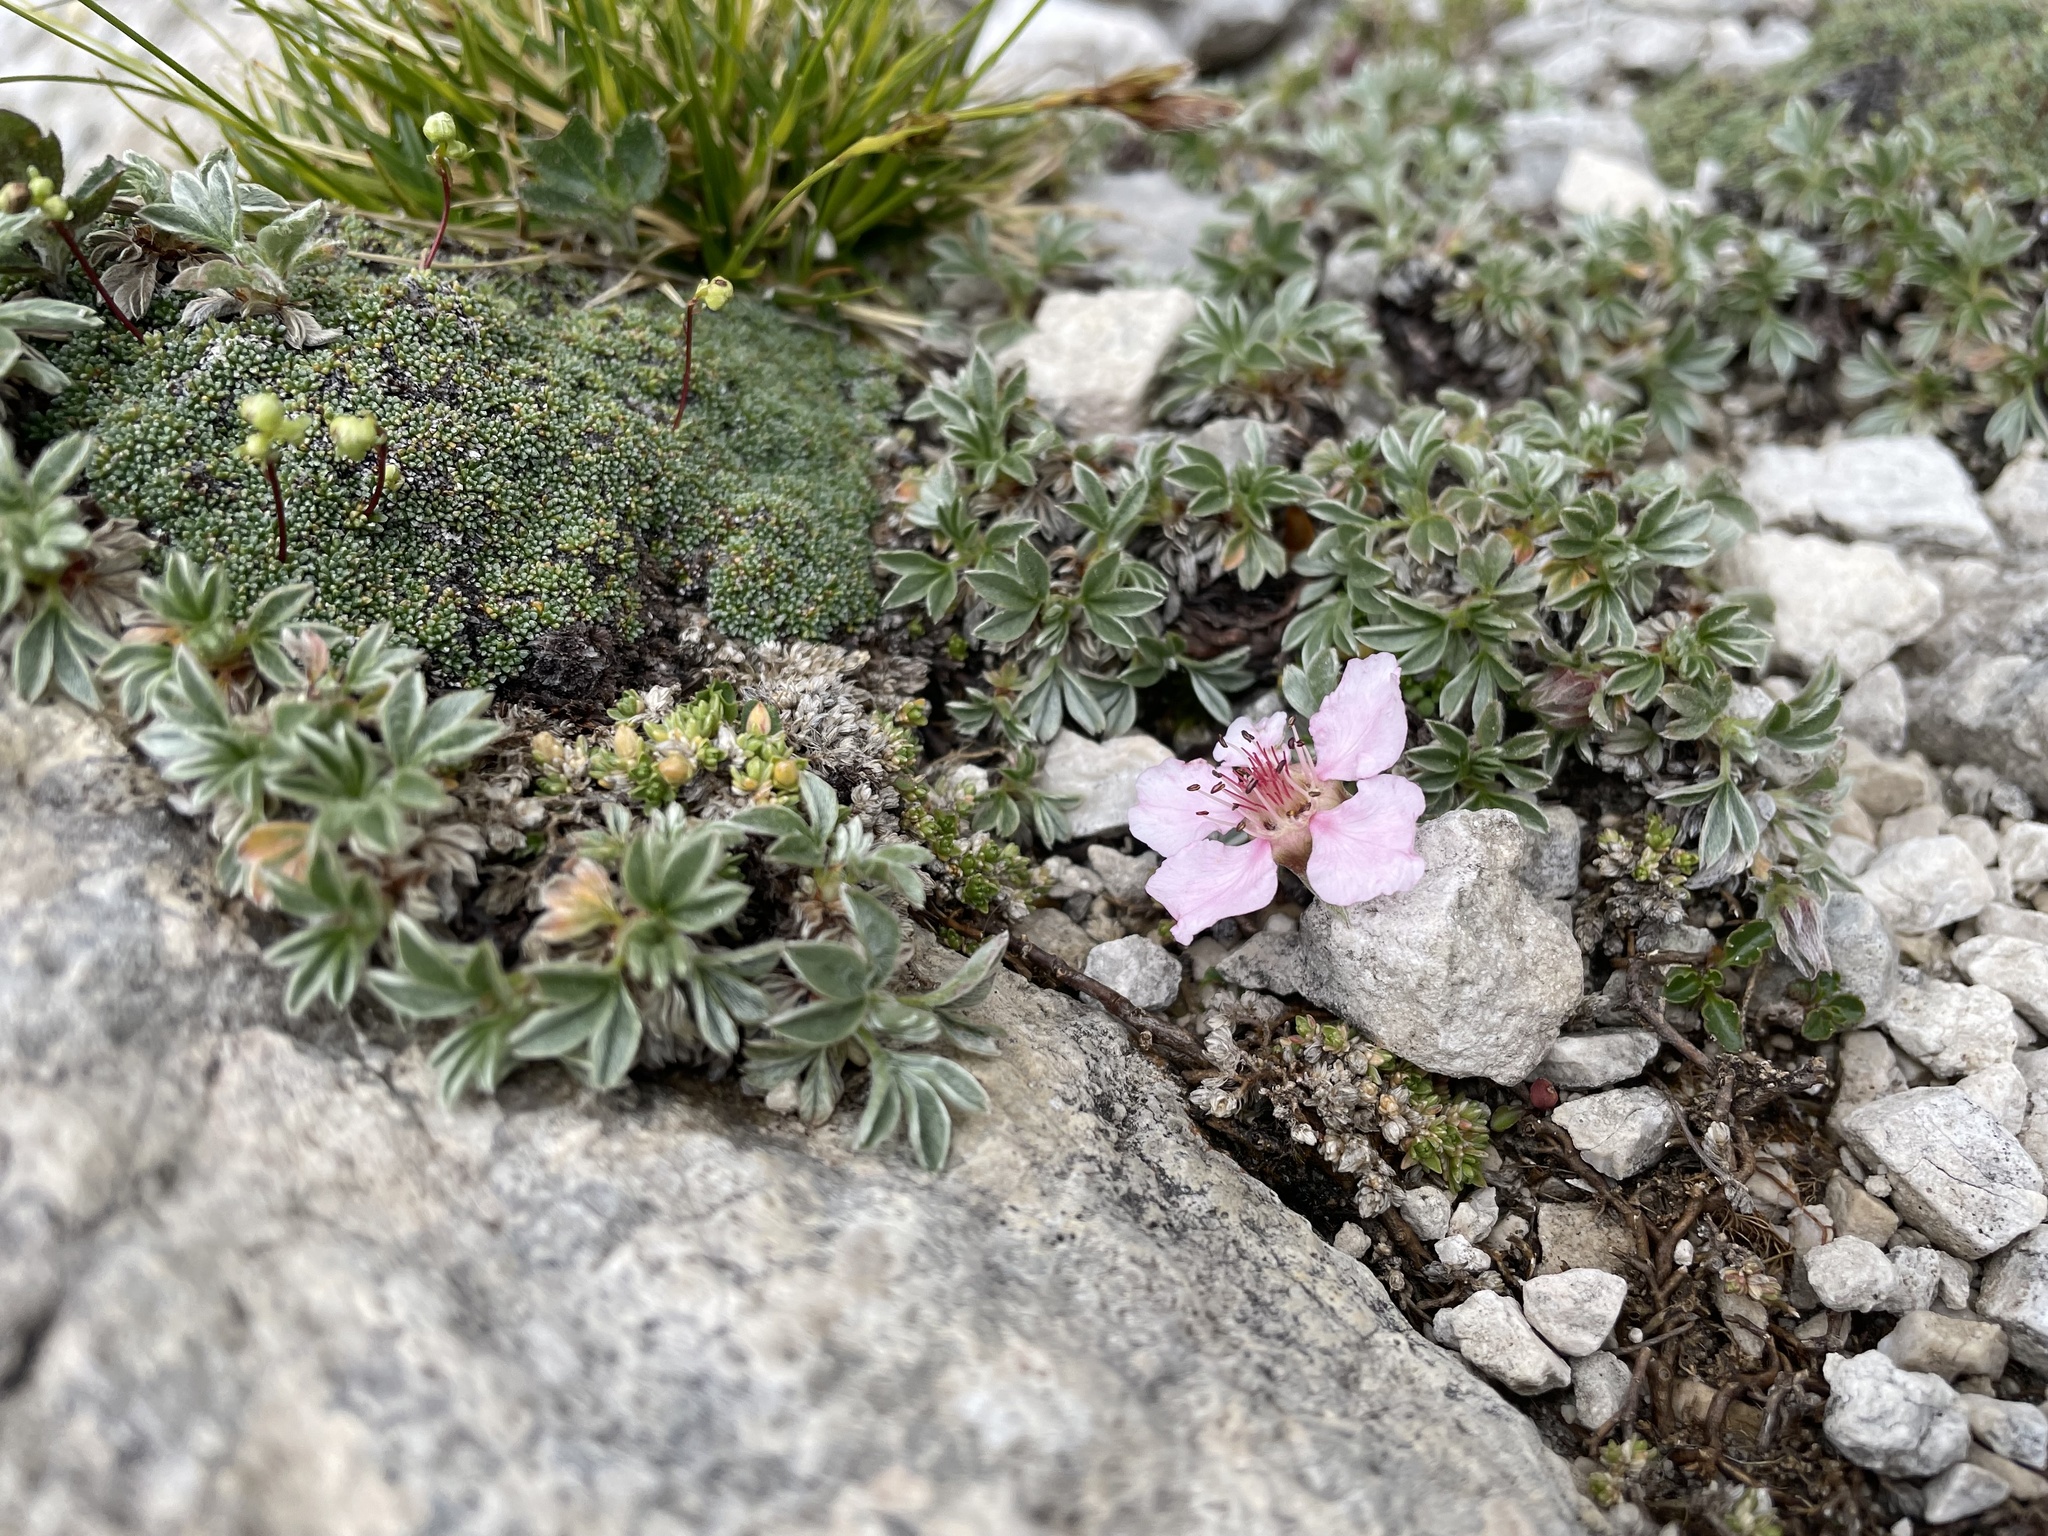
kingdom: Plantae
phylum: Tracheophyta
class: Magnoliopsida
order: Rosales
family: Rosaceae
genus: Potentilla
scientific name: Potentilla nitida
